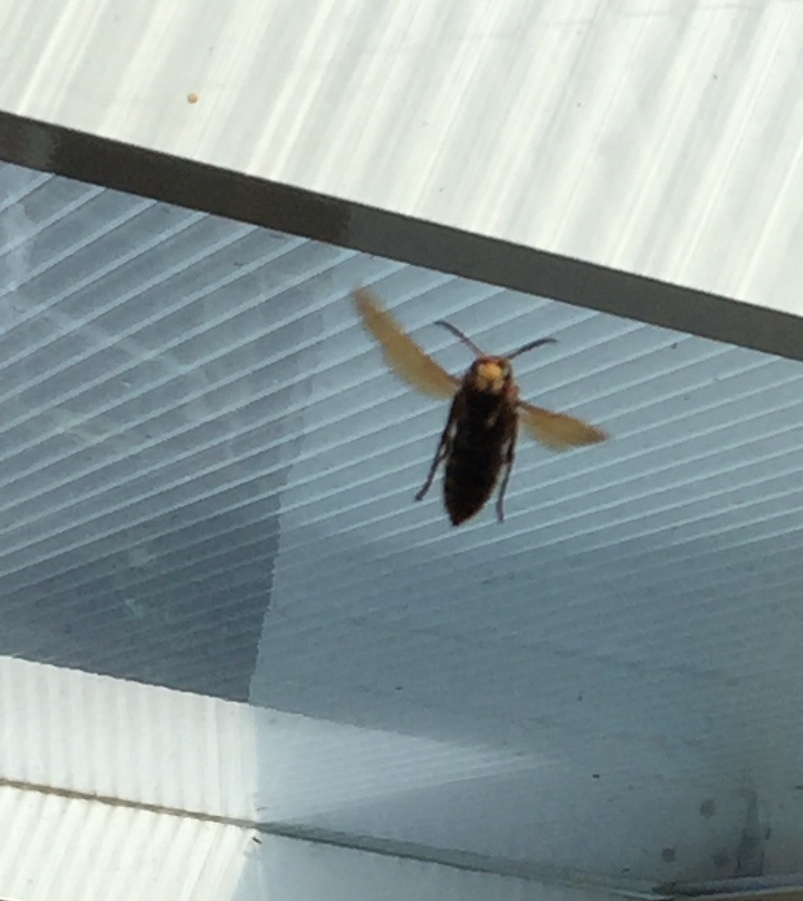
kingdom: Animalia
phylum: Arthropoda
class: Insecta
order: Hymenoptera
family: Vespidae
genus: Vespa
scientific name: Vespa crabro
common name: Hornet
